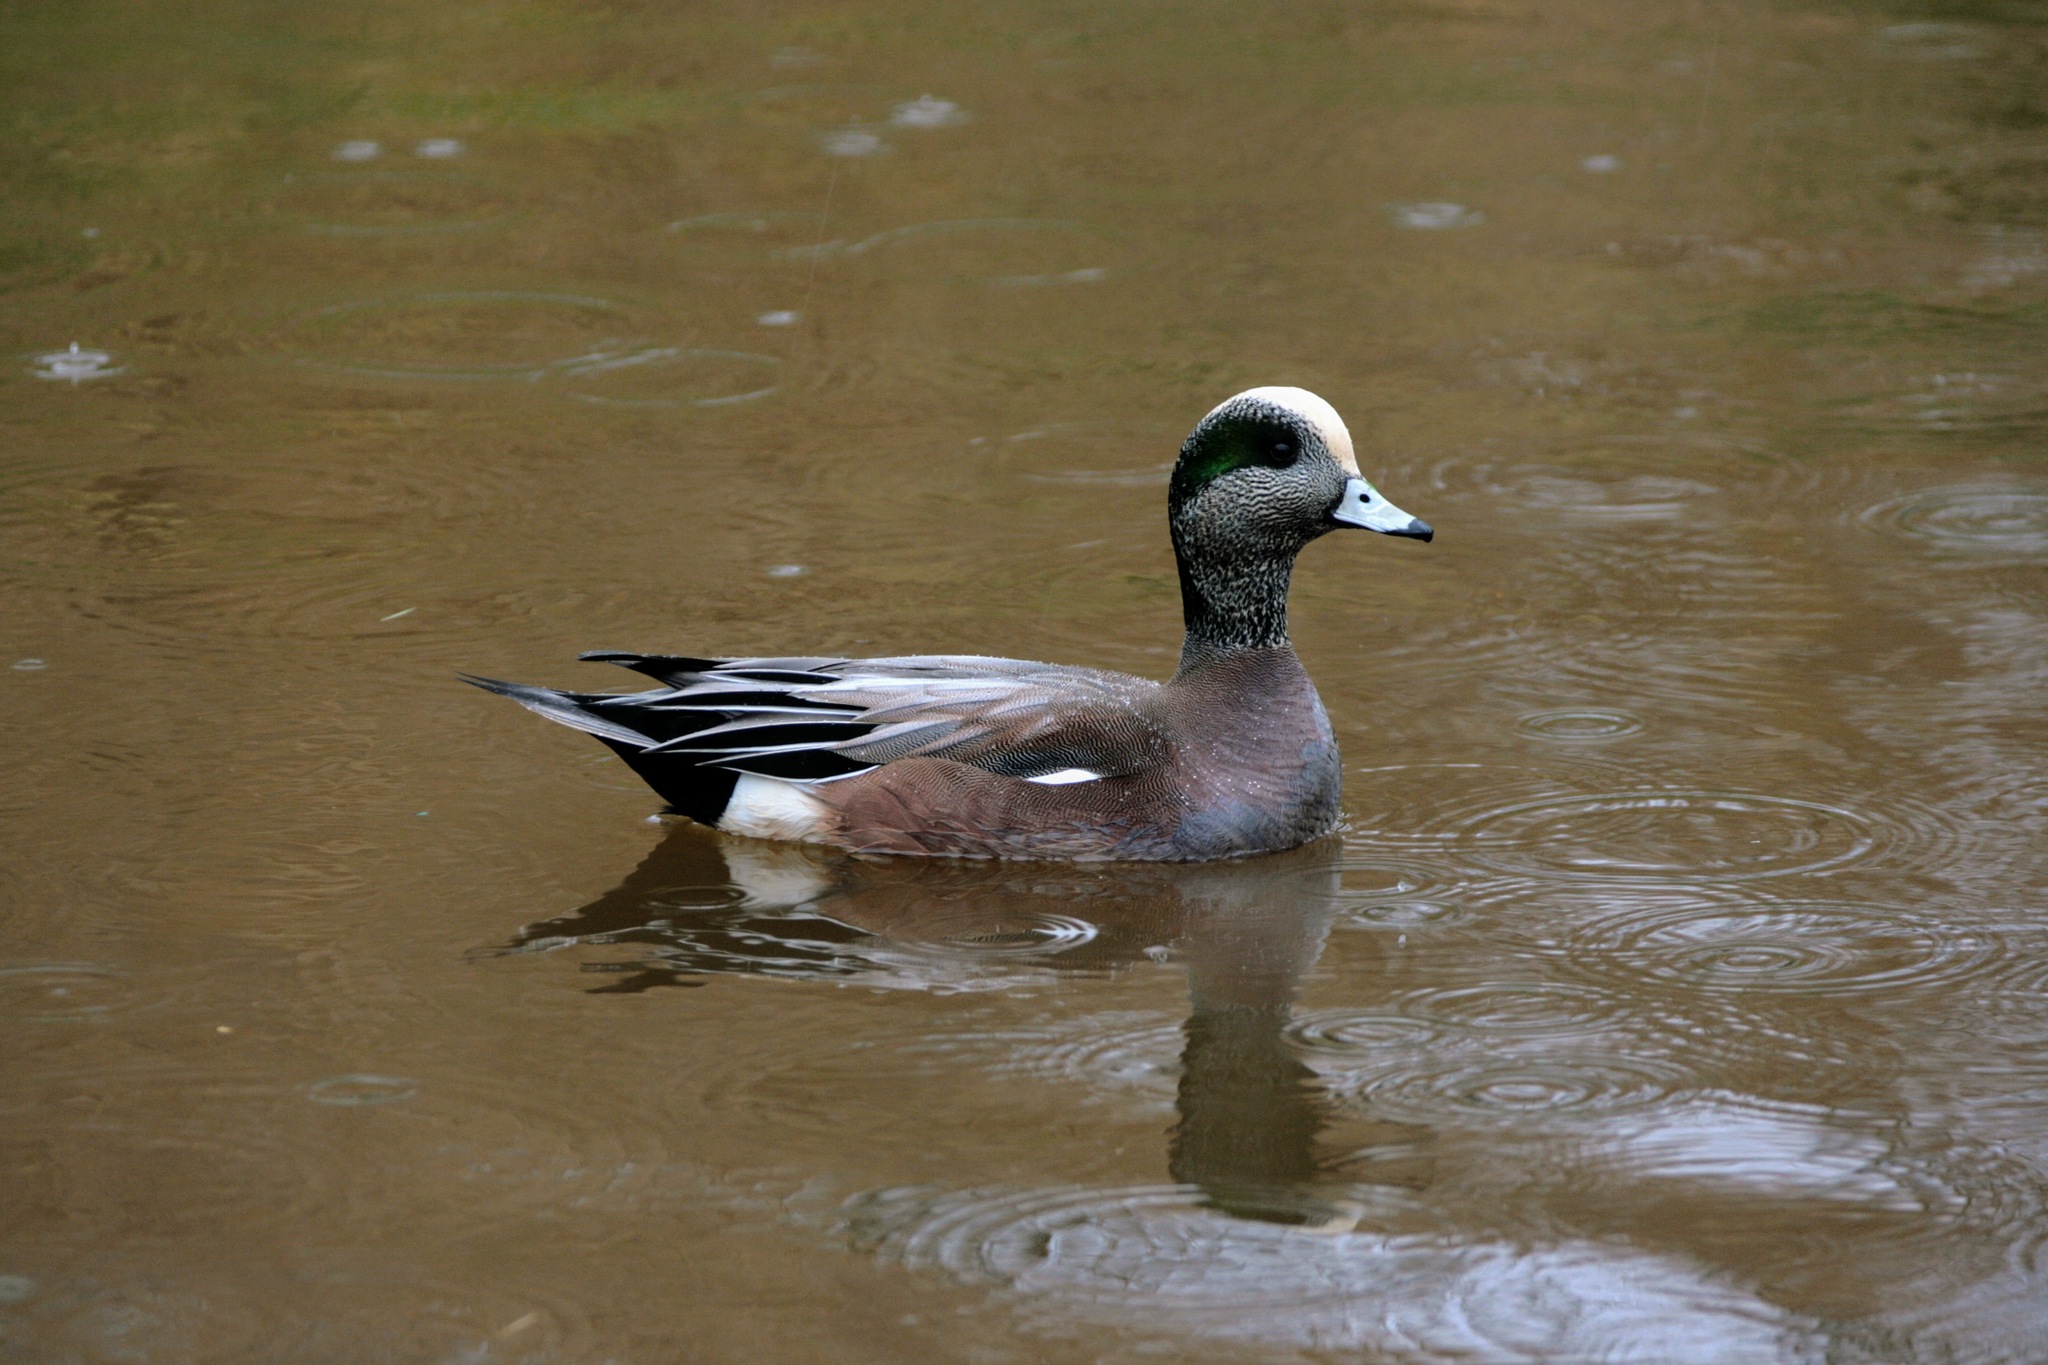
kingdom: Animalia
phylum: Chordata
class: Aves
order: Anseriformes
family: Anatidae
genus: Mareca
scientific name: Mareca americana
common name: American wigeon
